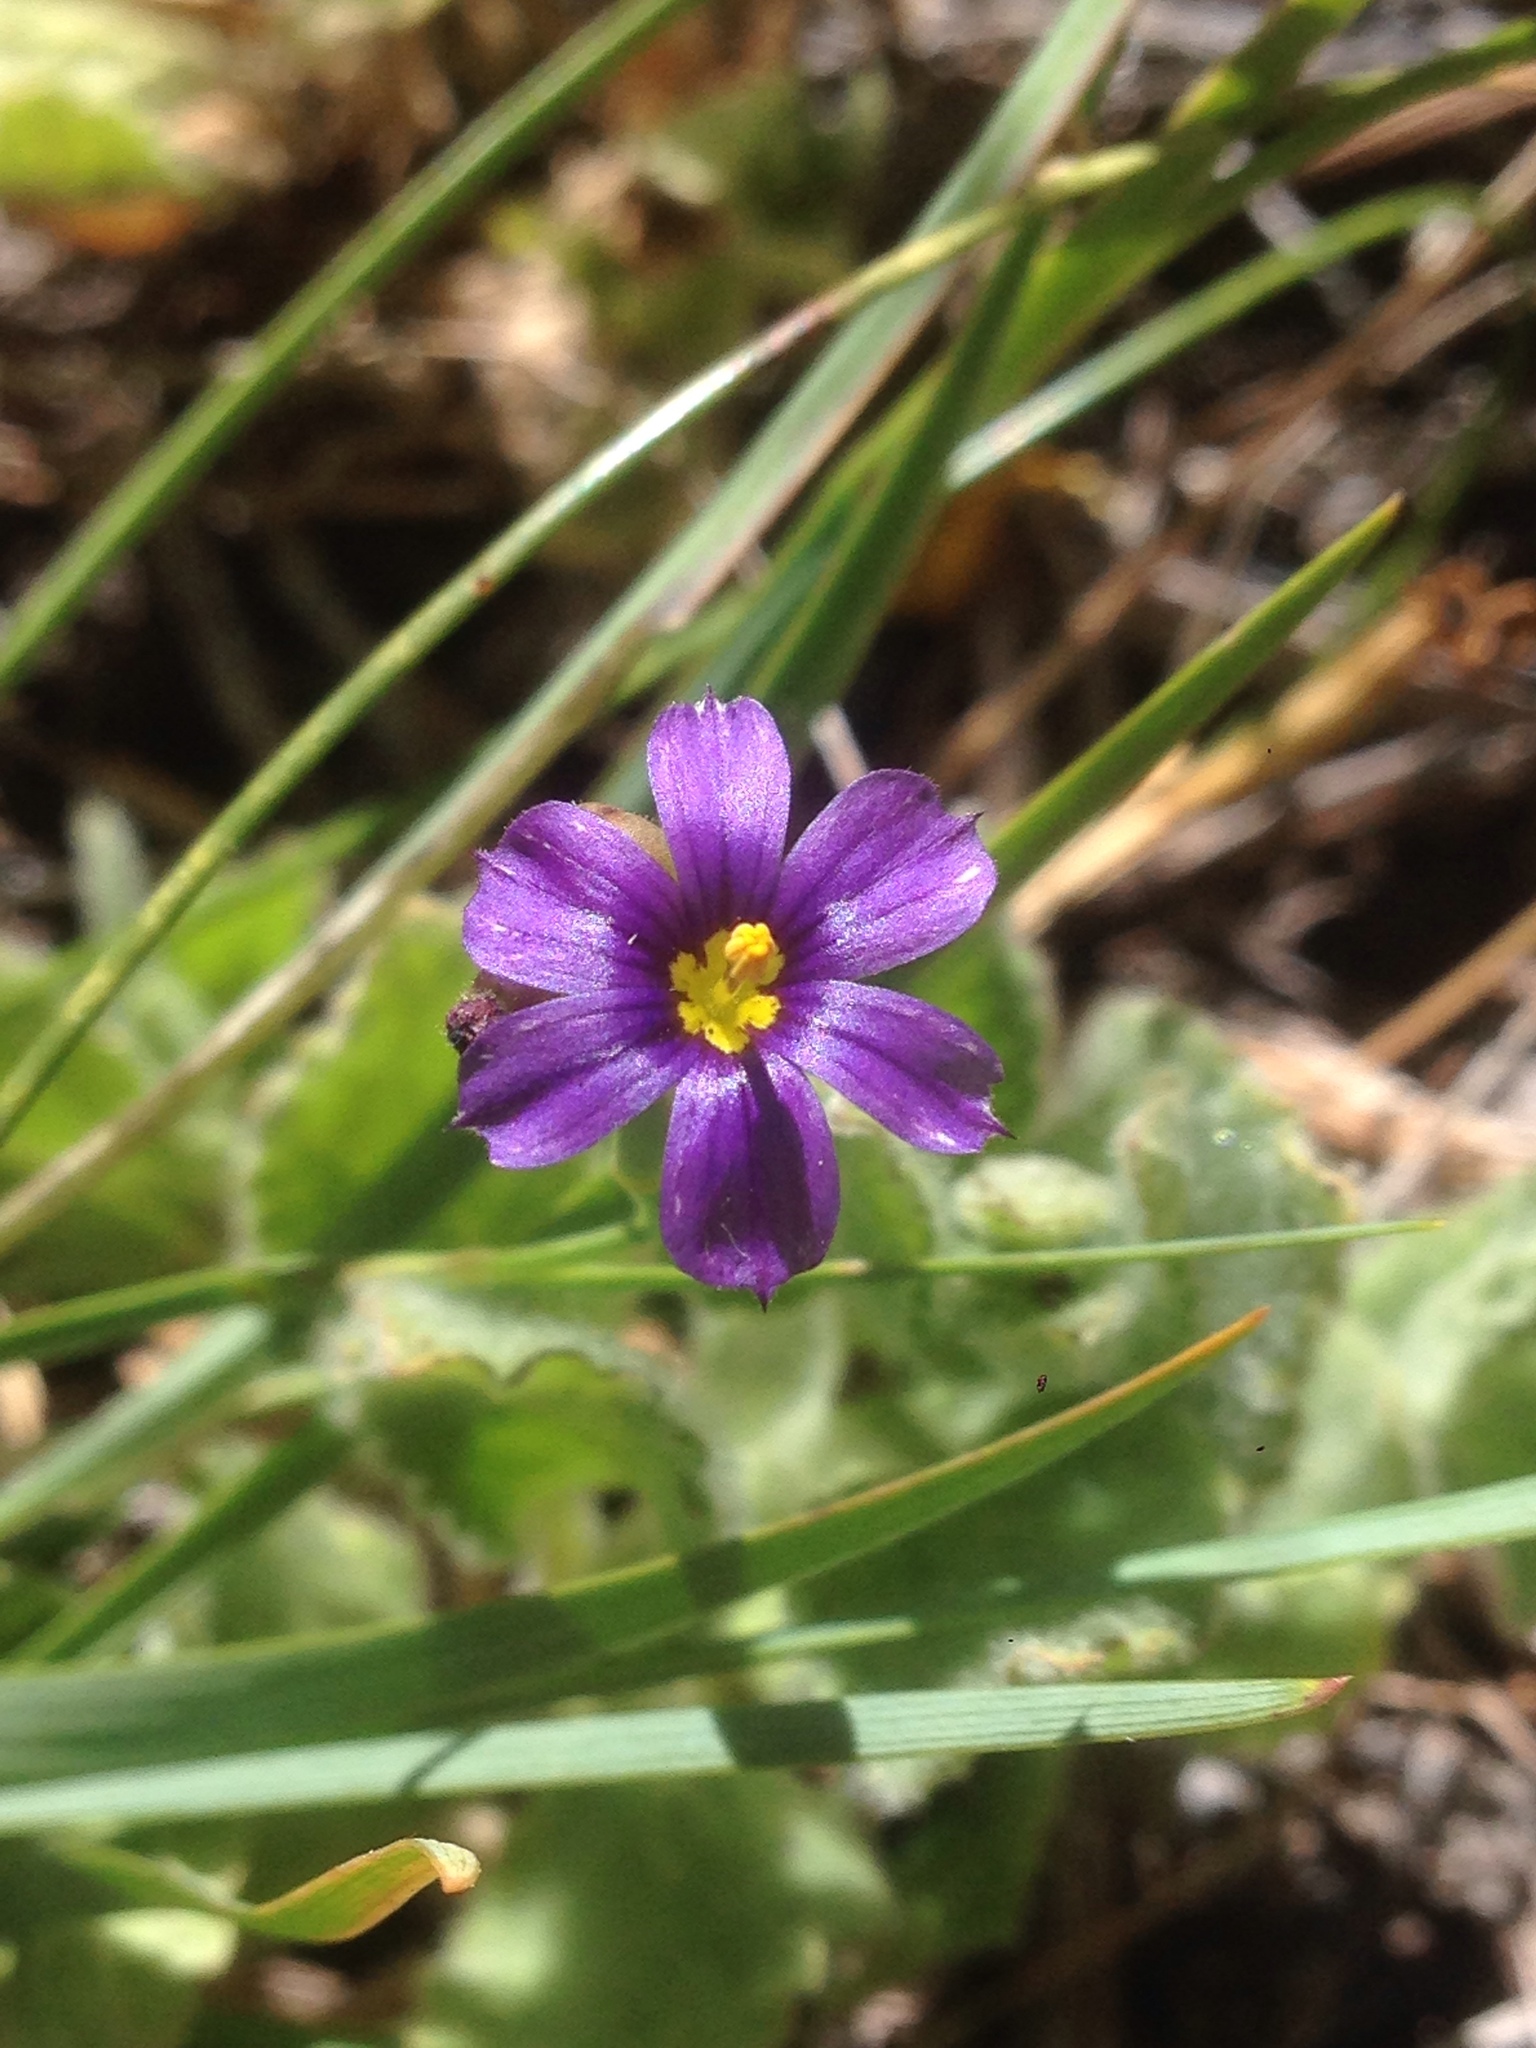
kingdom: Plantae
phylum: Tracheophyta
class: Liliopsida
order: Asparagales
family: Iridaceae
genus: Sisyrinchium
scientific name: Sisyrinchium bellum
